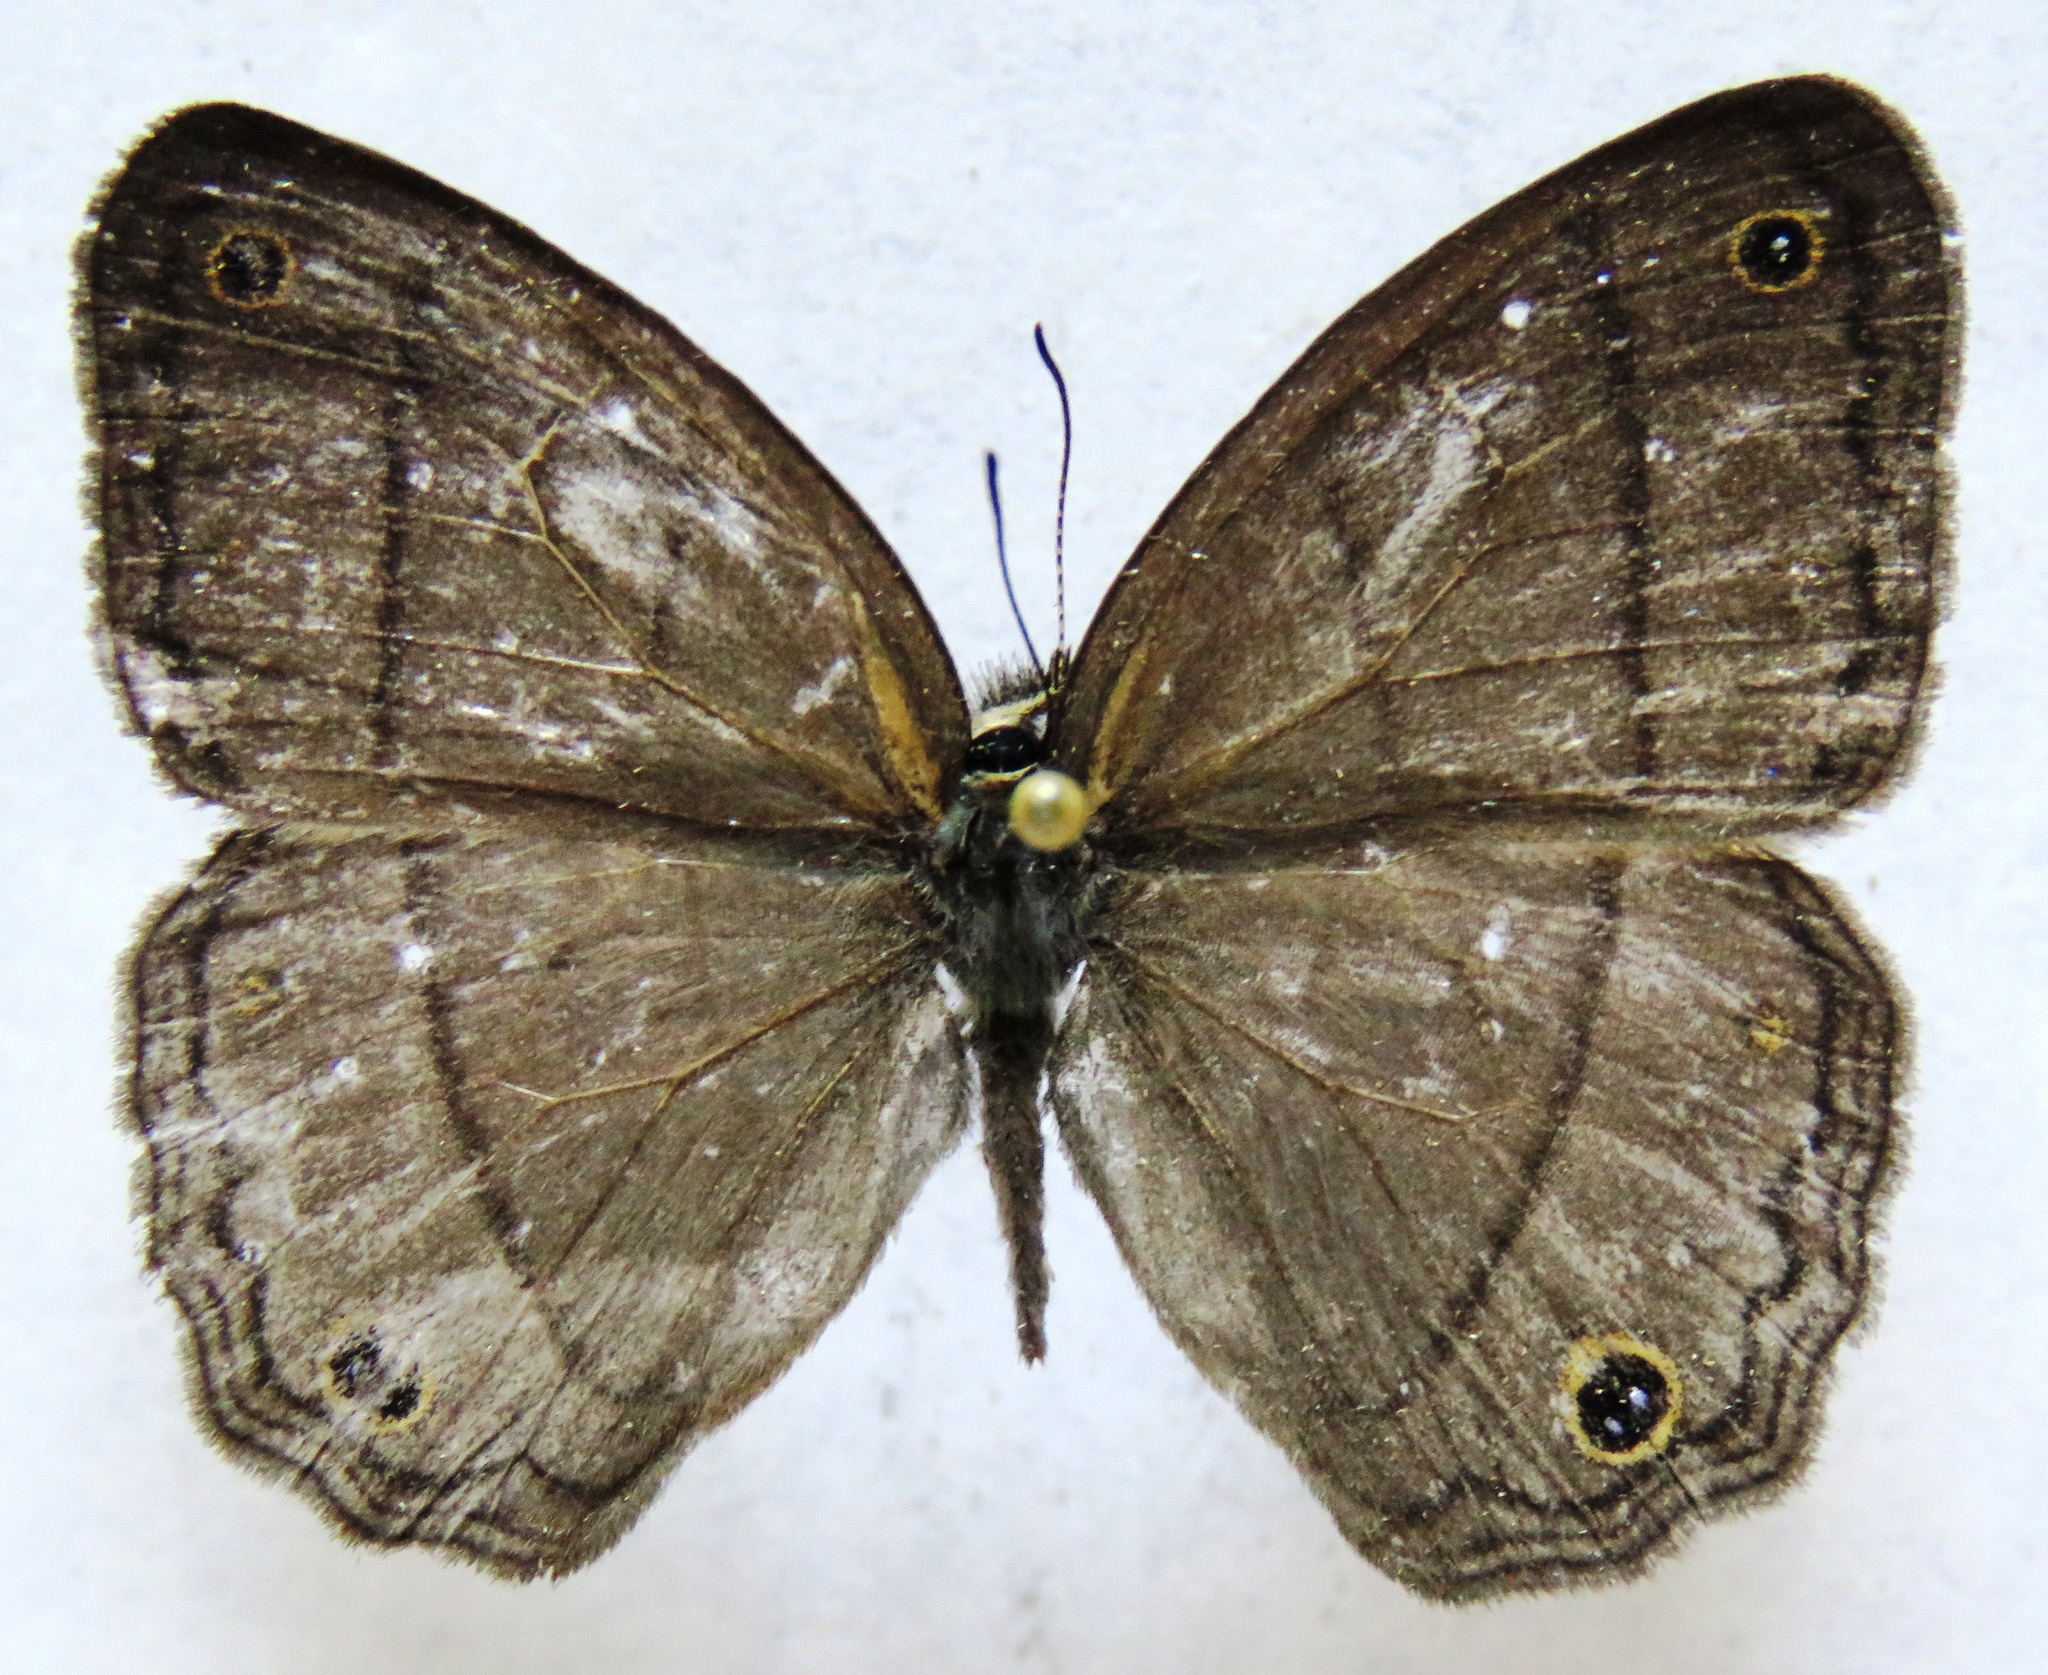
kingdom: Animalia
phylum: Arthropoda
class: Insecta
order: Lepidoptera
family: Nymphalidae
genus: Euptychia
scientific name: Euptychia Cissia pompilia
